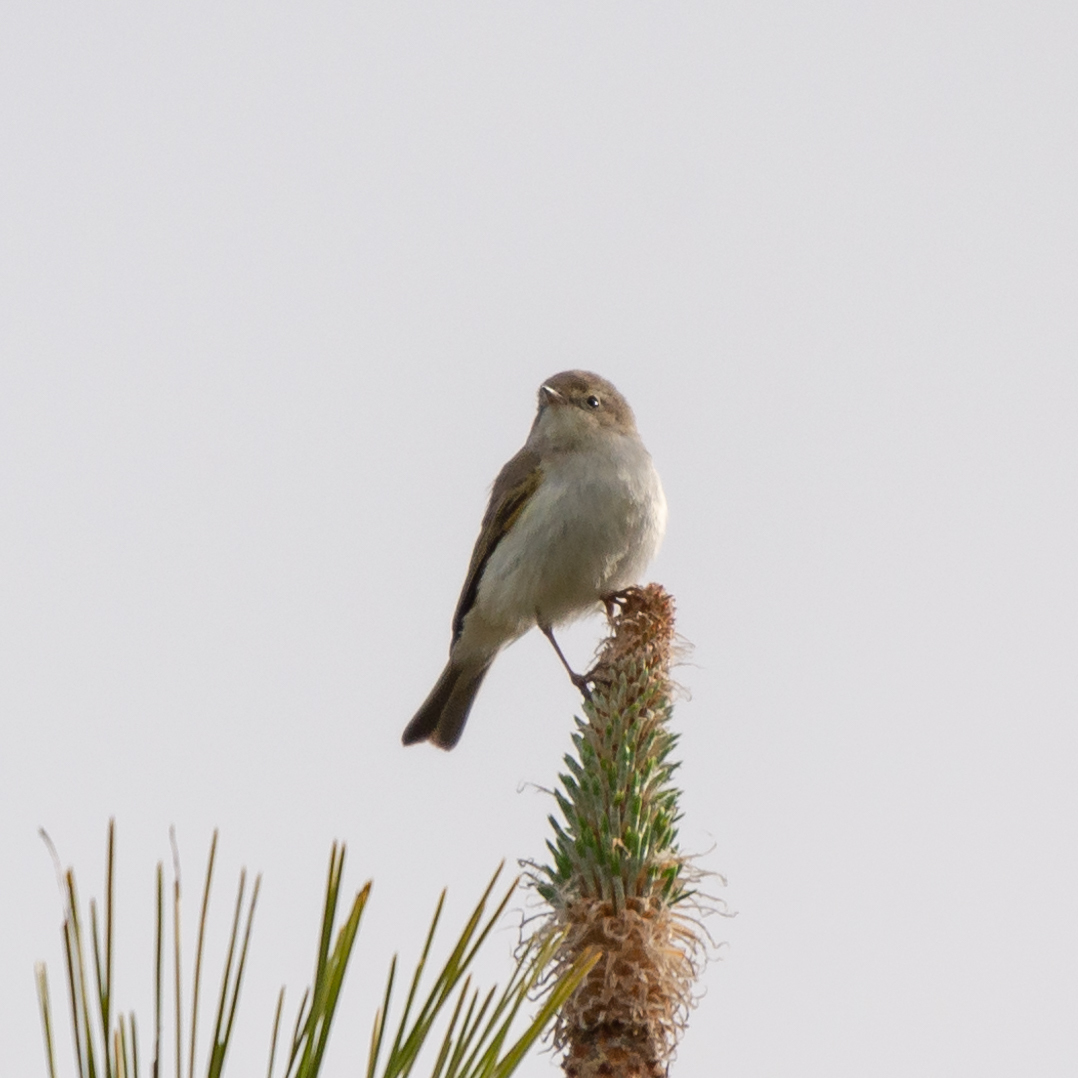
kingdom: Animalia
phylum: Chordata
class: Aves
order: Passeriformes
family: Phylloscopidae
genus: Phylloscopus
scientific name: Phylloscopus bonelli
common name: Western bonelli's warbler
